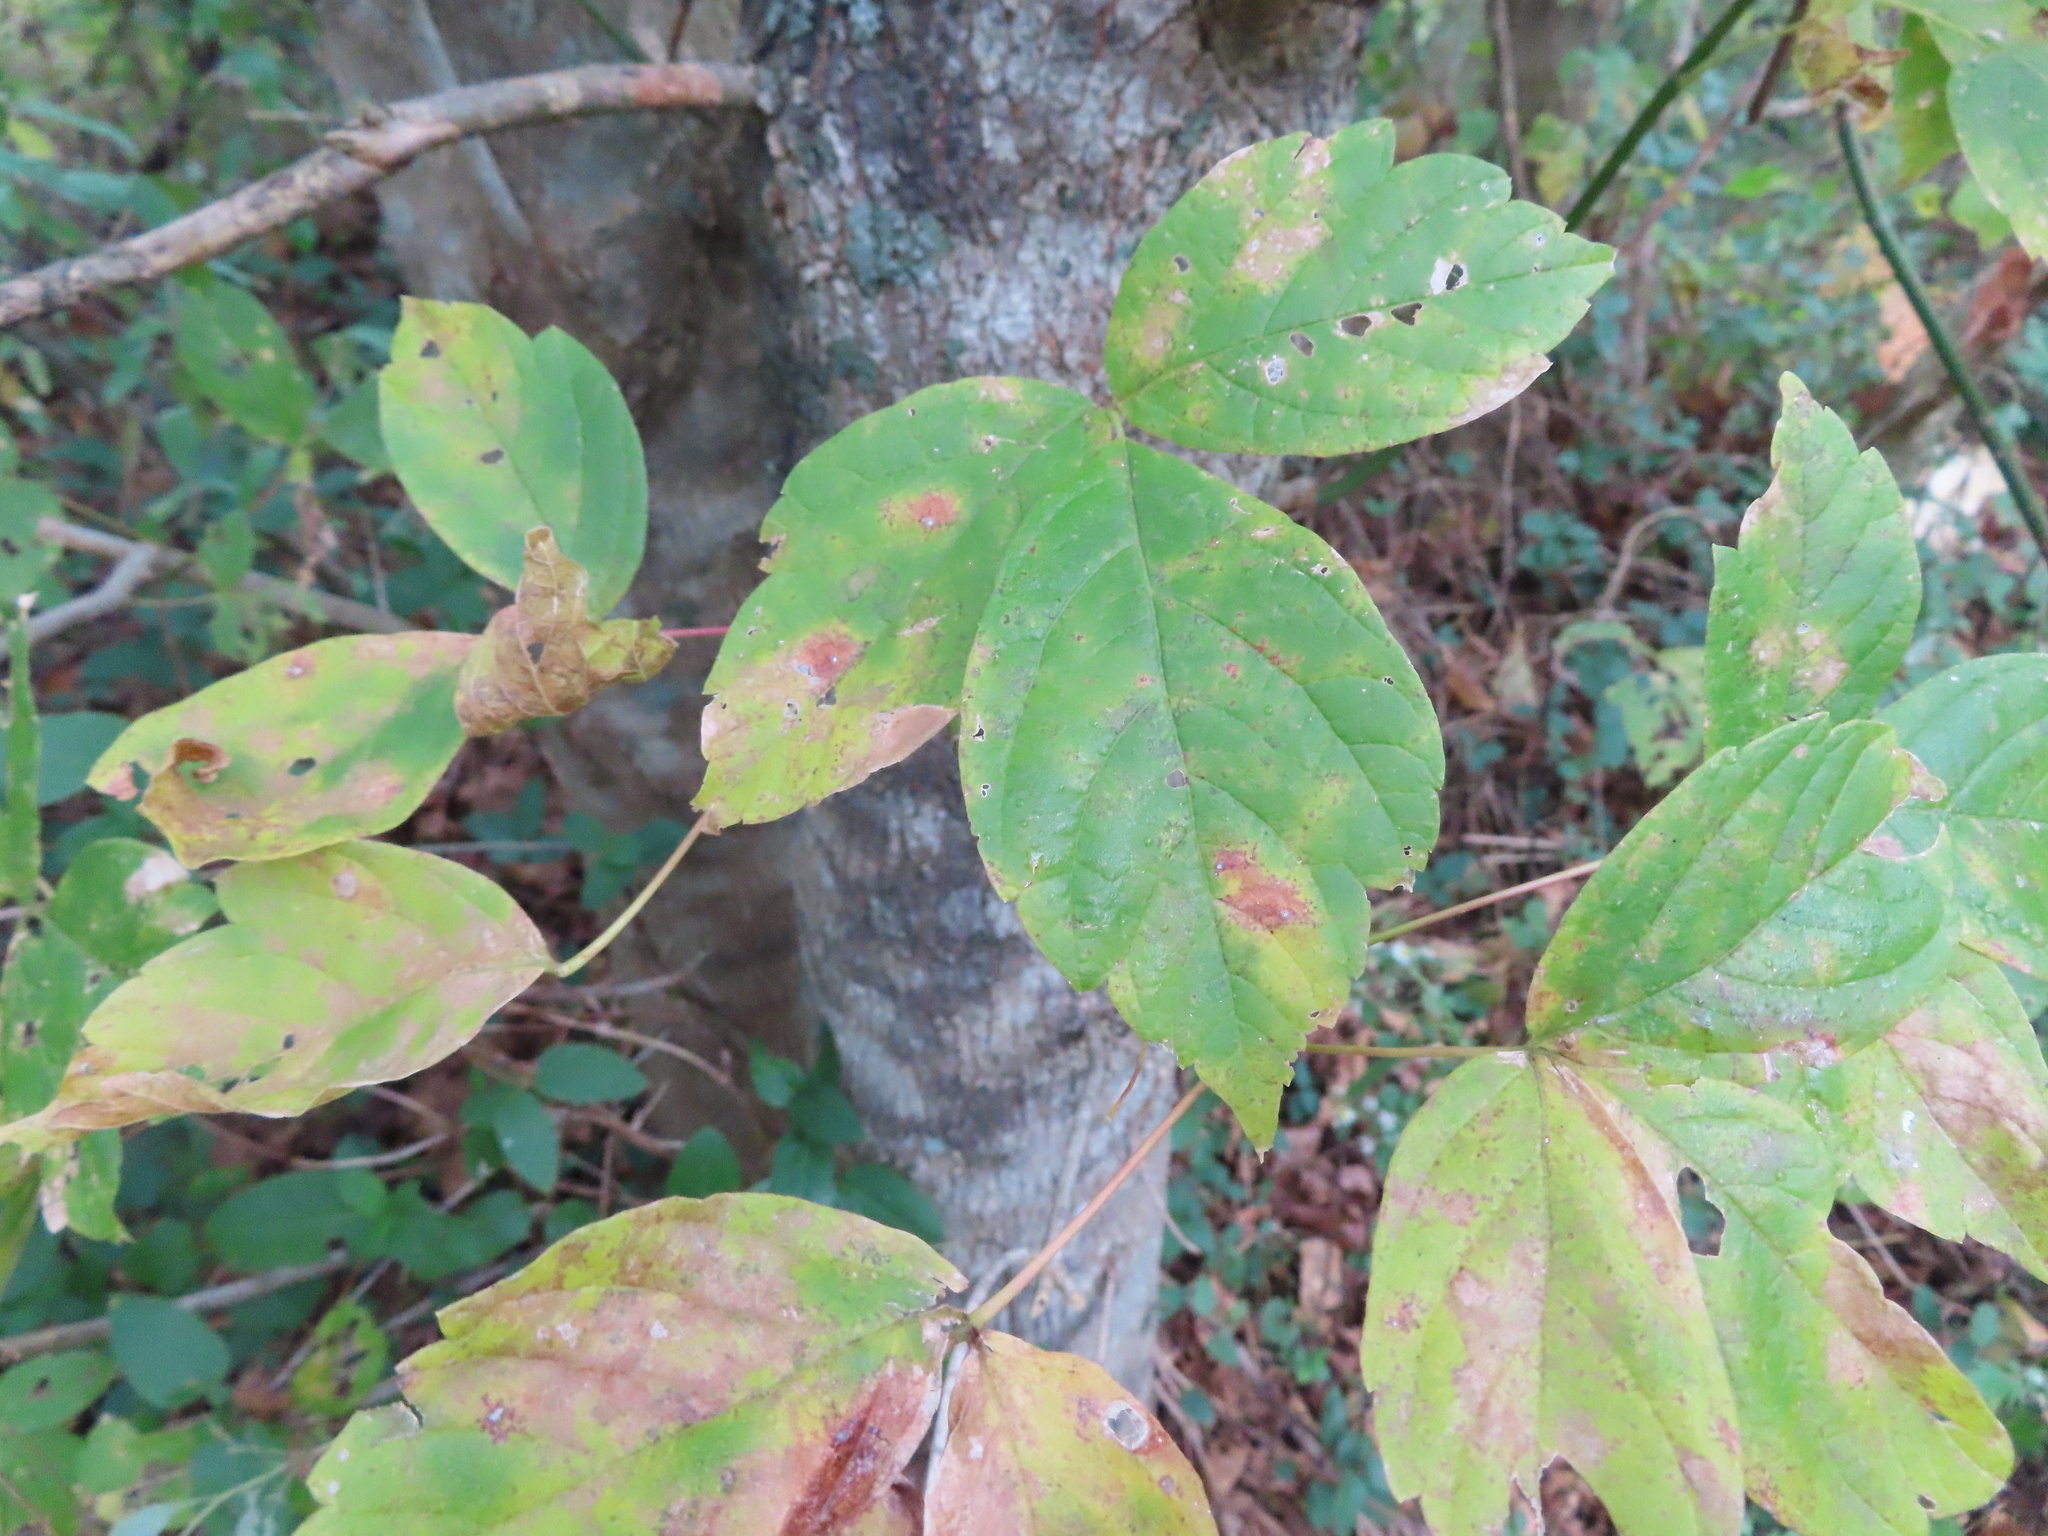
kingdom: Plantae
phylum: Tracheophyta
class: Magnoliopsida
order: Sapindales
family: Sapindaceae
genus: Acer
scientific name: Acer negundo
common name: Ashleaf maple
